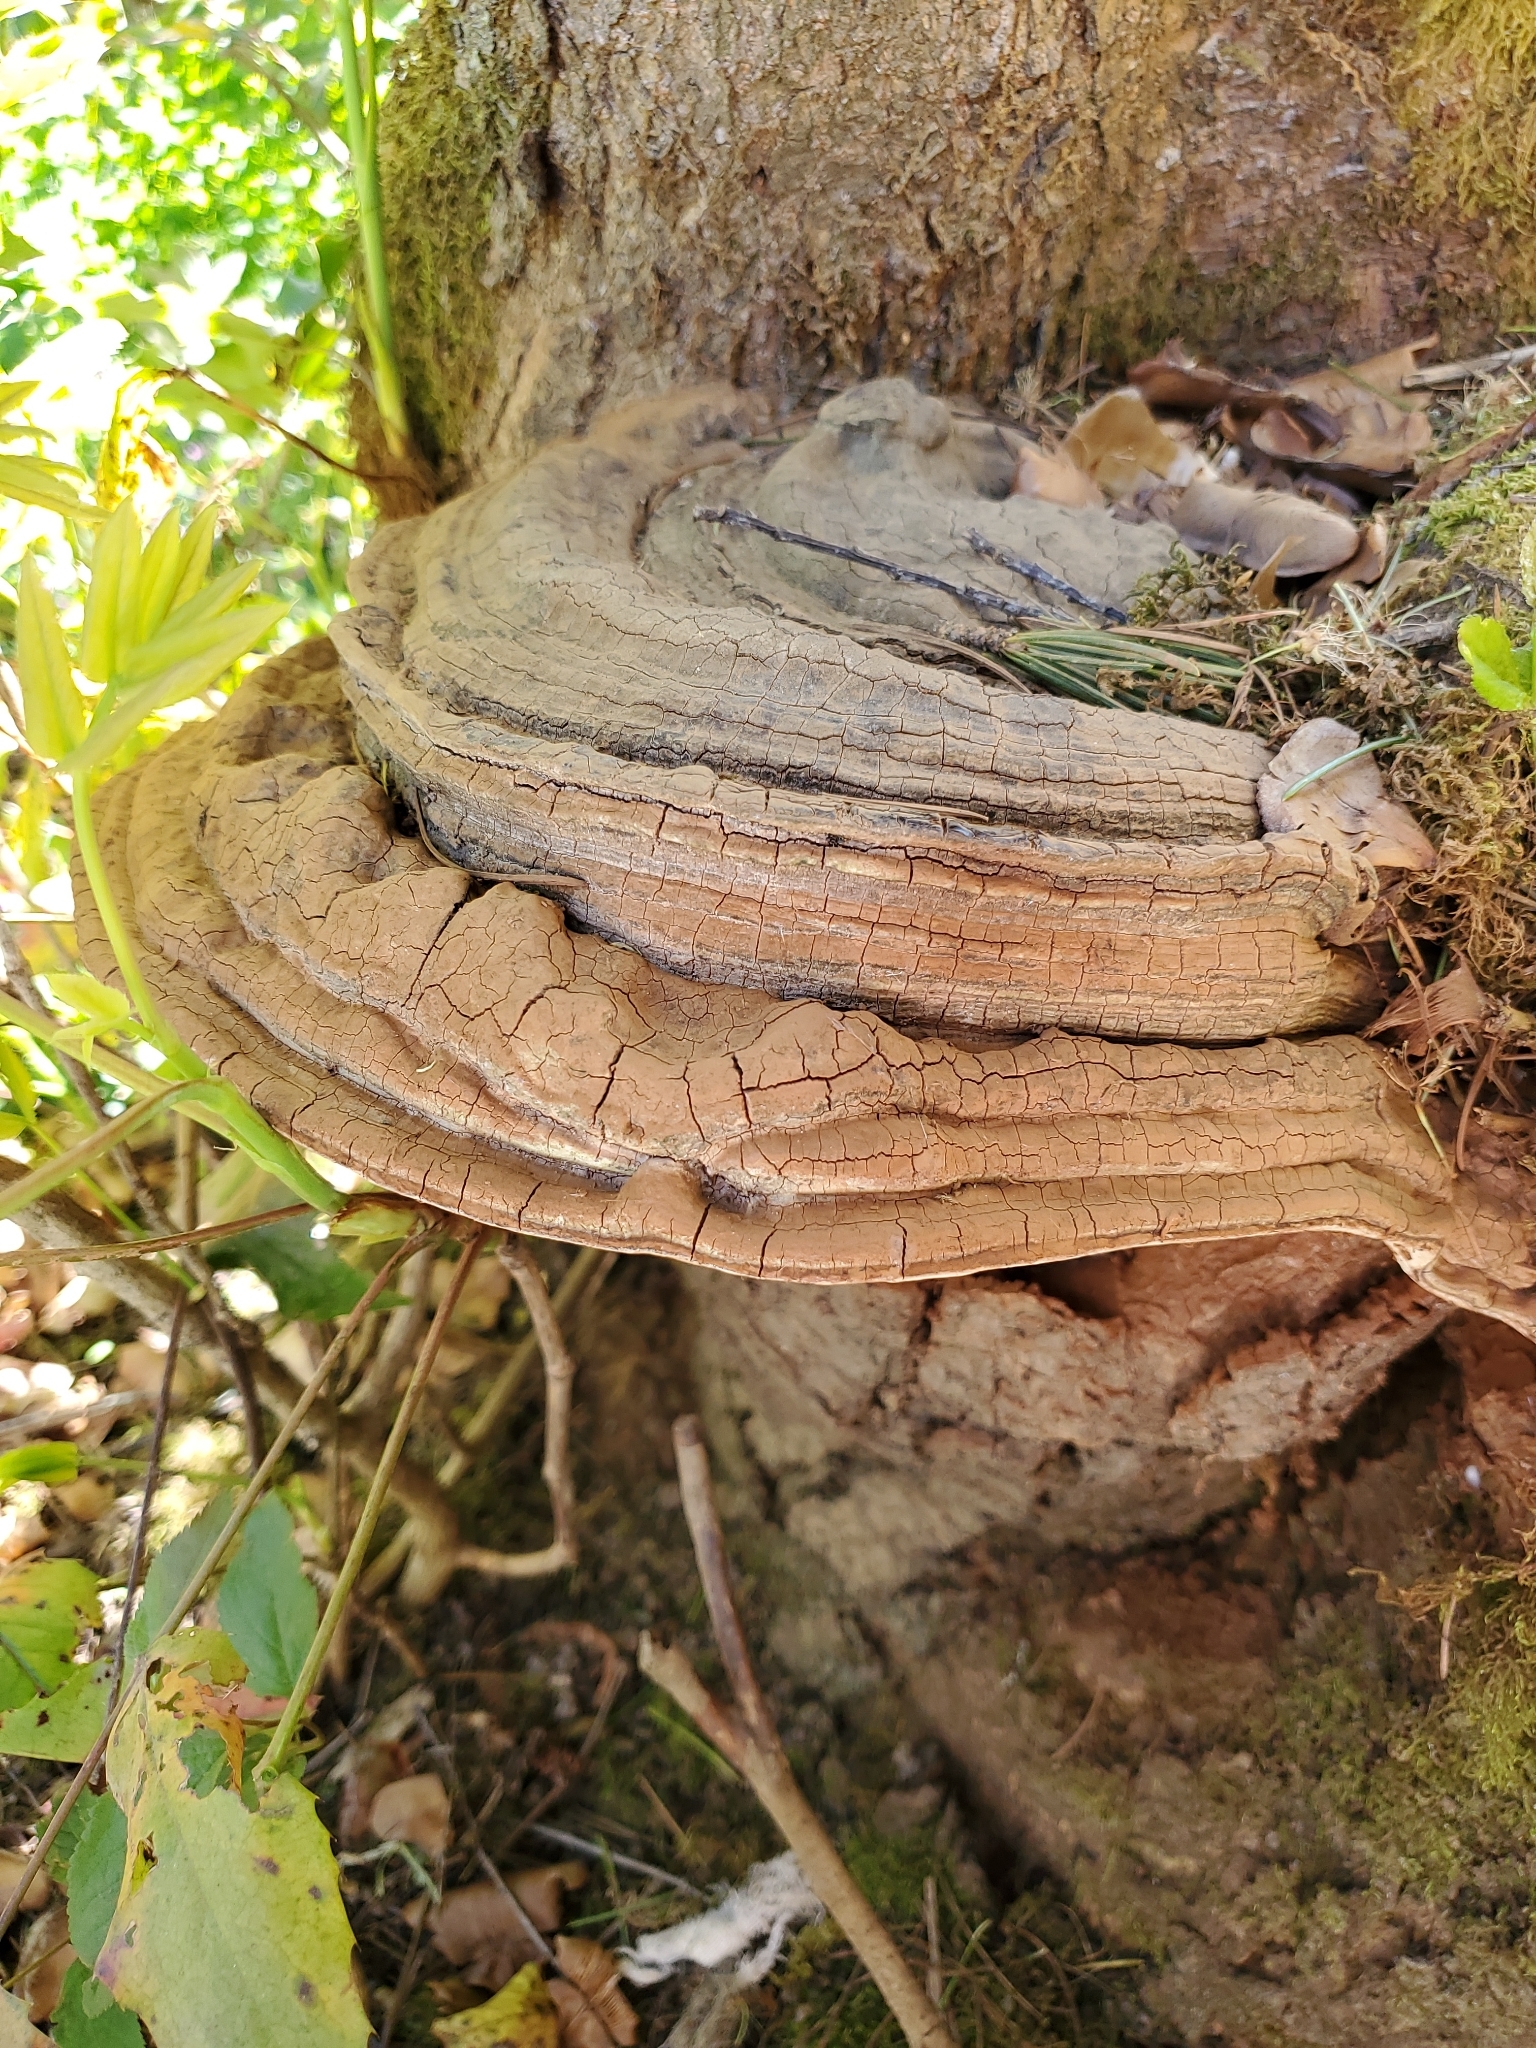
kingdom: Fungi
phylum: Basidiomycota
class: Agaricomycetes
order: Polyporales
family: Polyporaceae
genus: Ganoderma
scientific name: Ganoderma brownii
